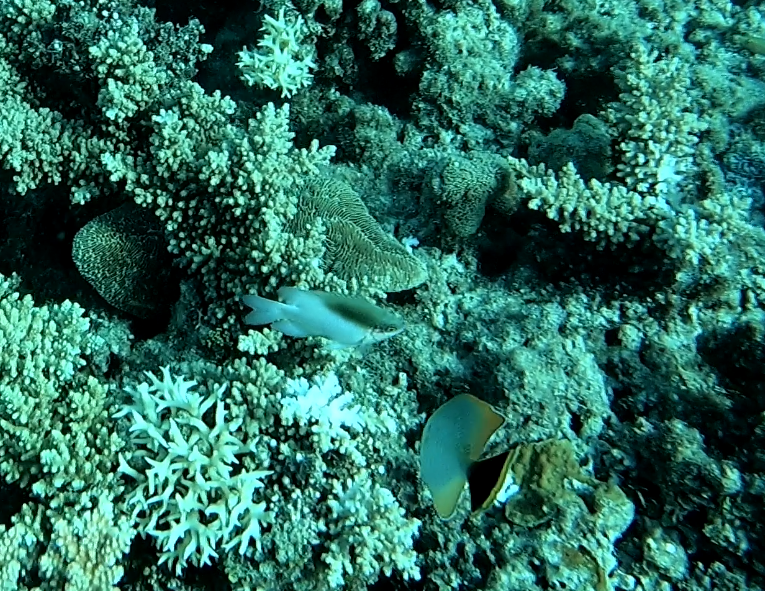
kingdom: Animalia
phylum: Chordata
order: Perciformes
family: Pomacentridae
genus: Dischistodus
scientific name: Dischistodus melanotus
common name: Black-vent damsel
